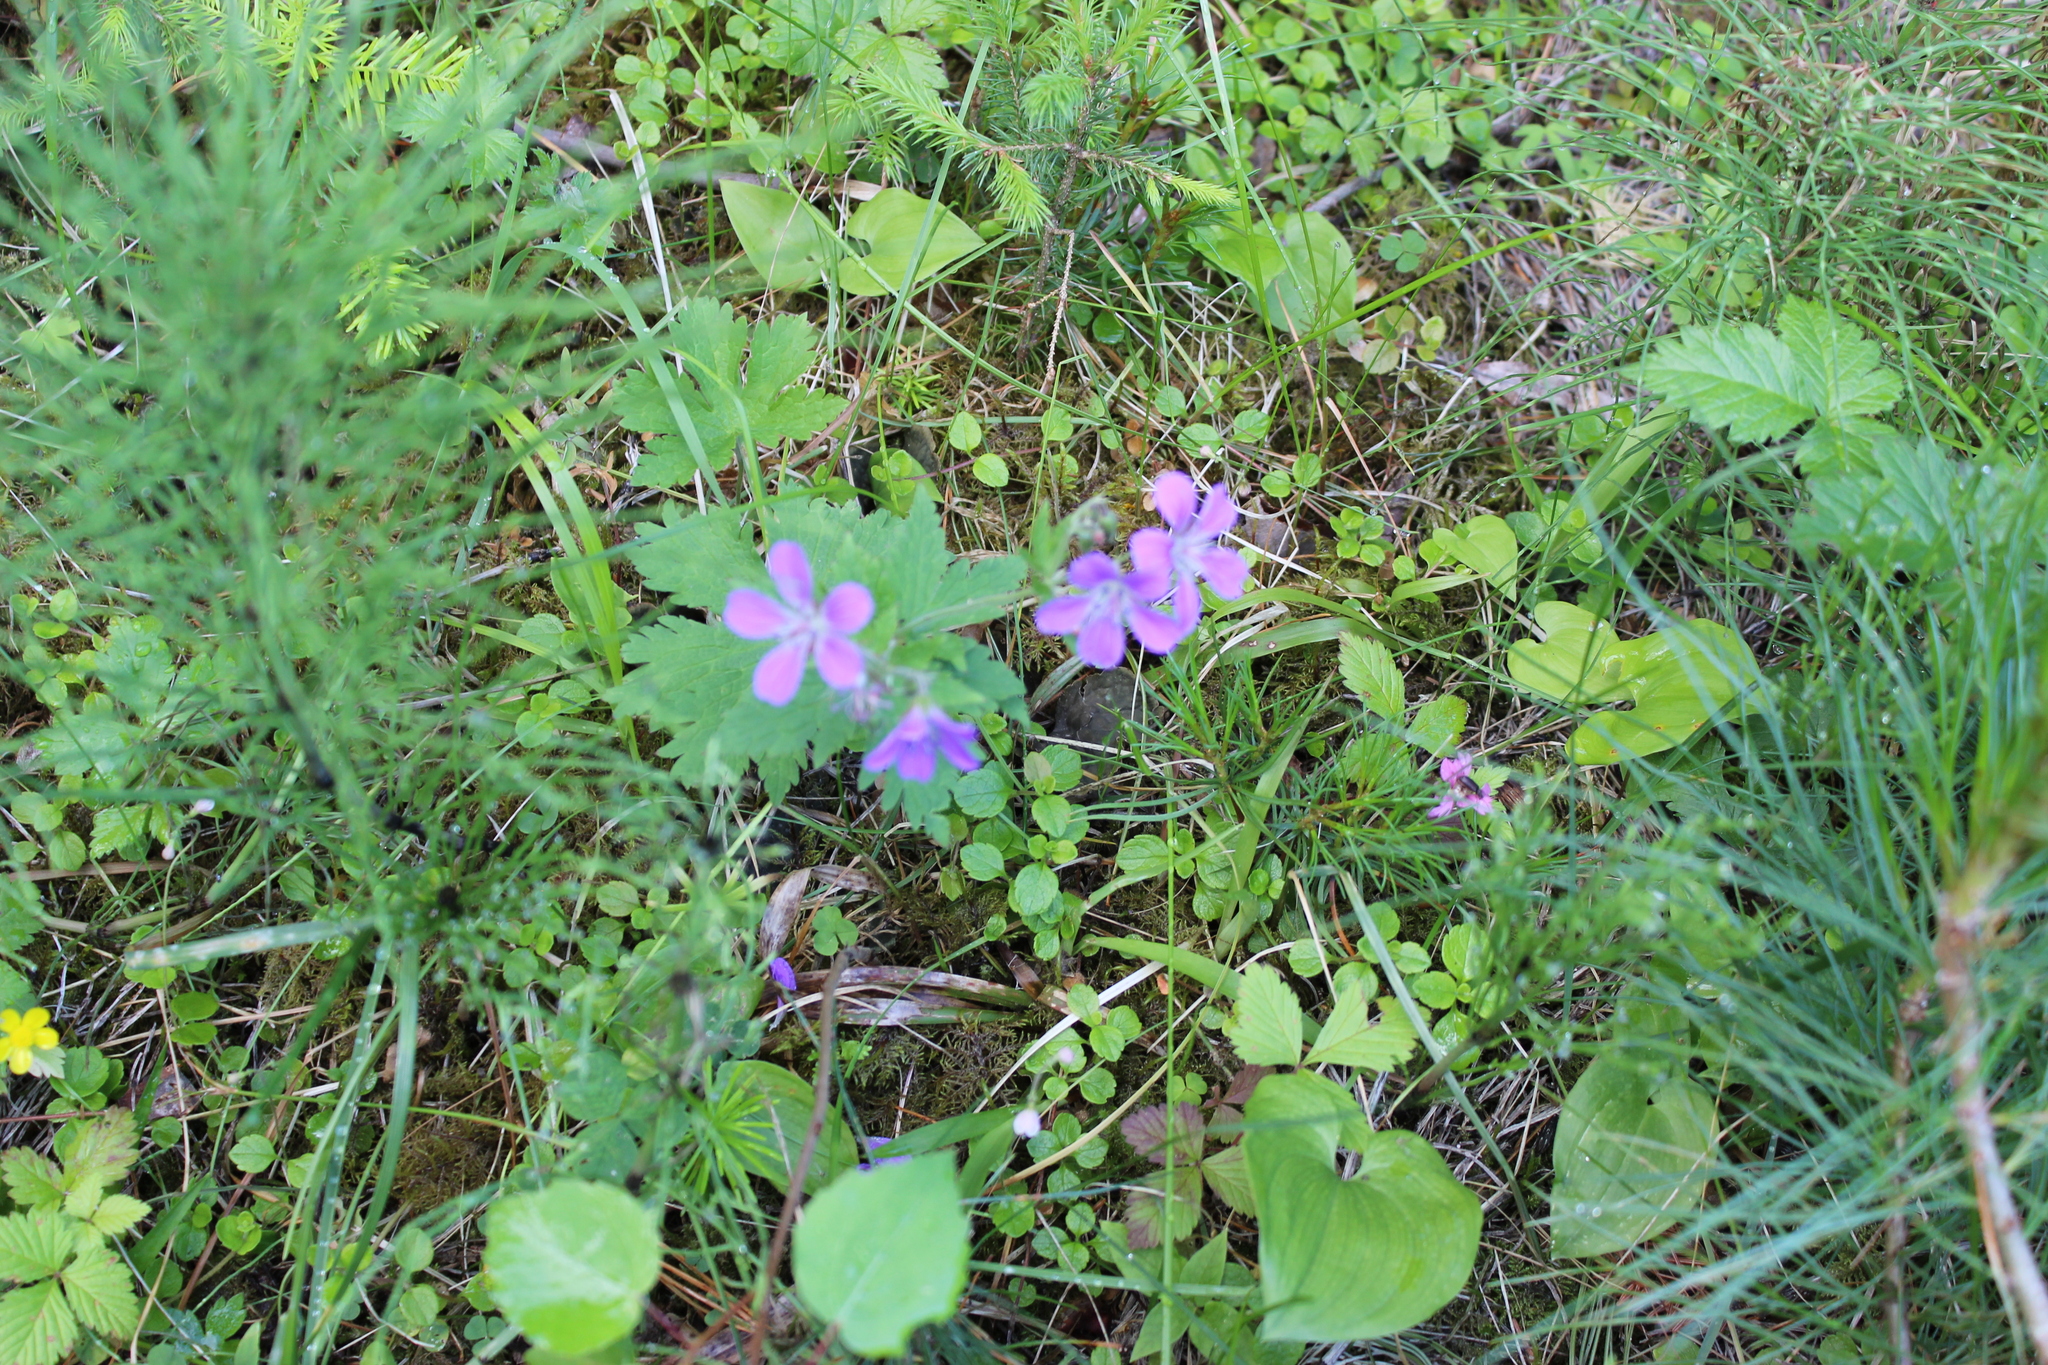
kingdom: Plantae
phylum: Tracheophyta
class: Magnoliopsida
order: Geraniales
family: Geraniaceae
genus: Geranium
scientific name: Geranium sylvaticum
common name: Wood crane's-bill
